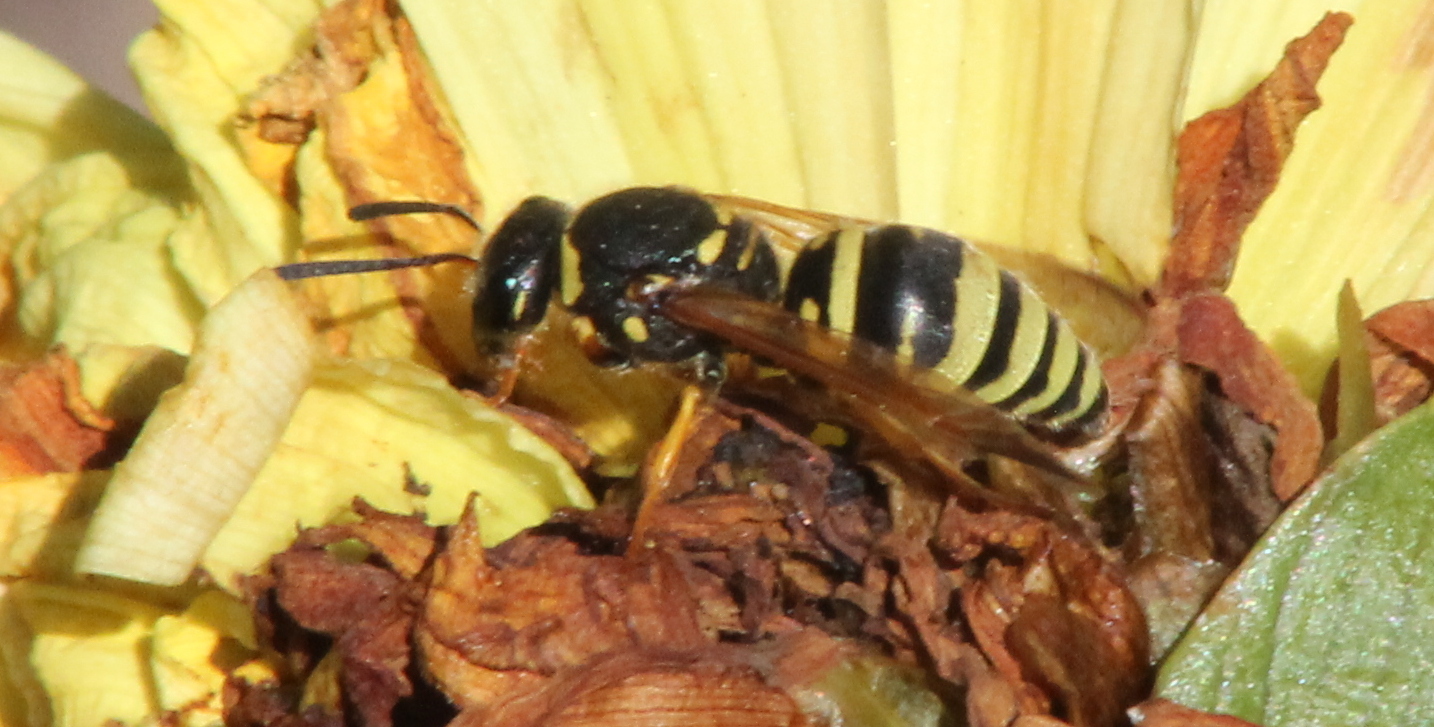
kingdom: Animalia
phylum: Arthropoda
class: Insecta
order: Hymenoptera
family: Vespidae
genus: Ancistrocerus
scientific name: Ancistrocerus durangoensis
